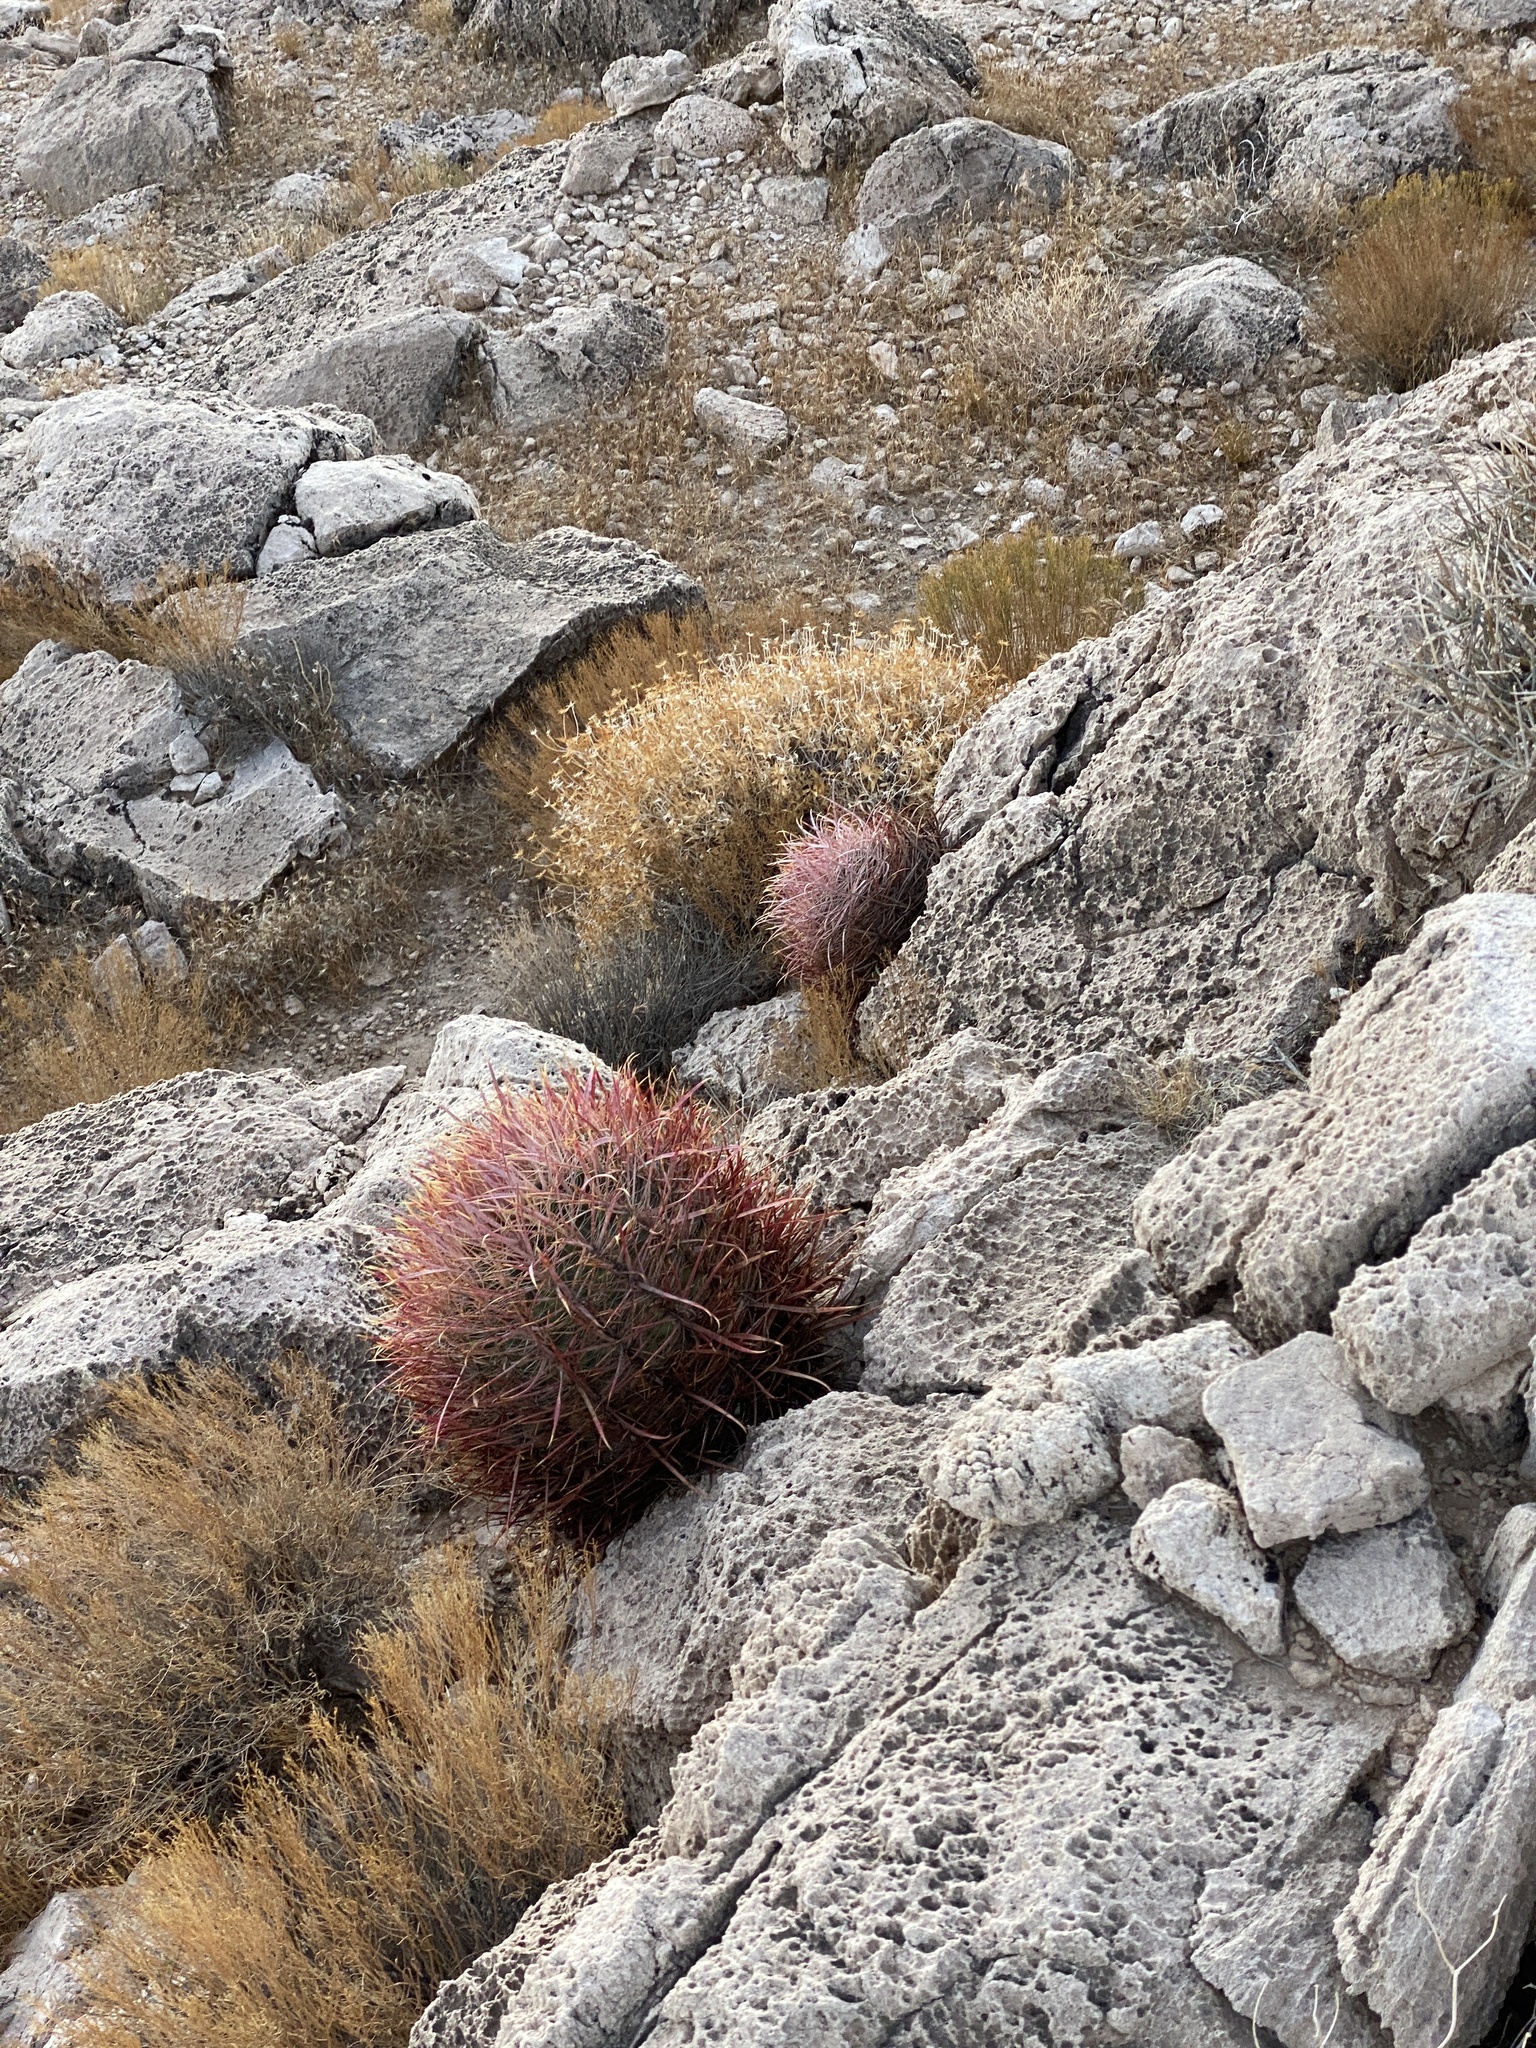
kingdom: Plantae
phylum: Tracheophyta
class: Magnoliopsida
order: Caryophyllales
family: Cactaceae
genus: Ferocactus
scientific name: Ferocactus cylindraceus
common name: California barrel cactus
